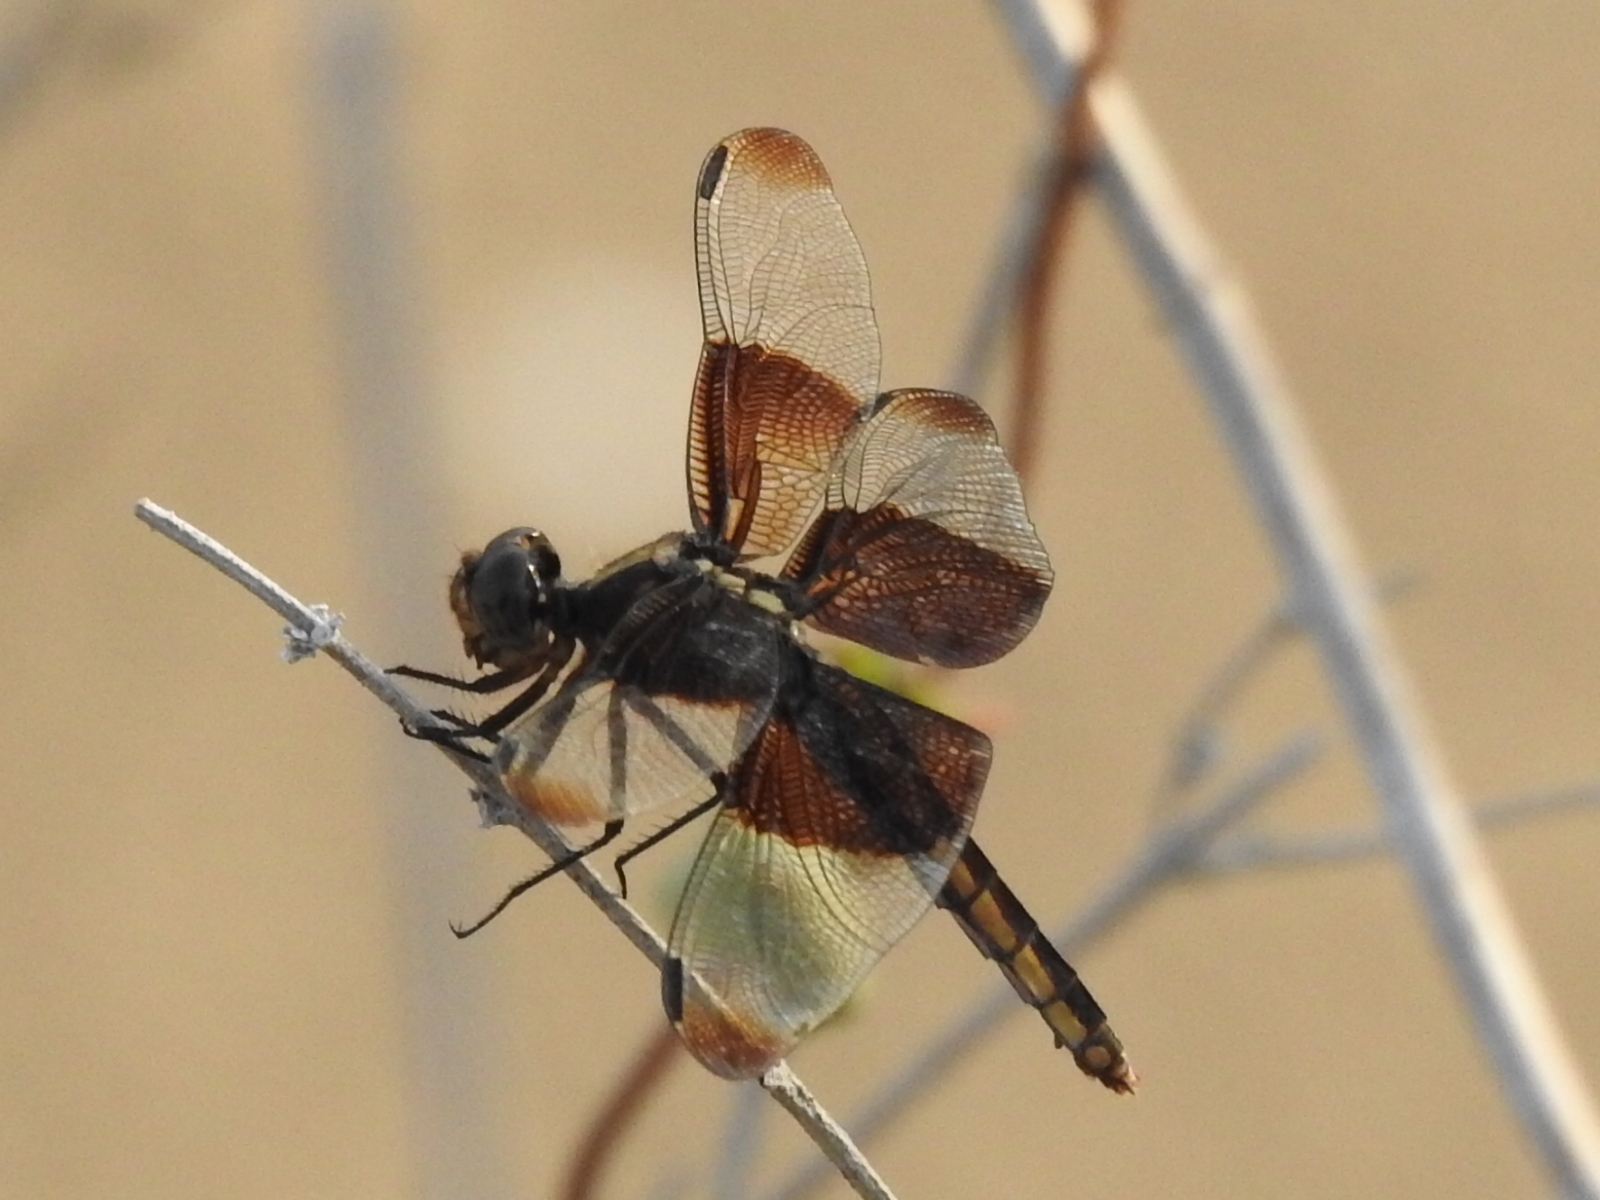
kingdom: Animalia
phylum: Arthropoda
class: Insecta
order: Odonata
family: Libellulidae
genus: Libellula
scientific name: Libellula luctuosa
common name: Widow skimmer
